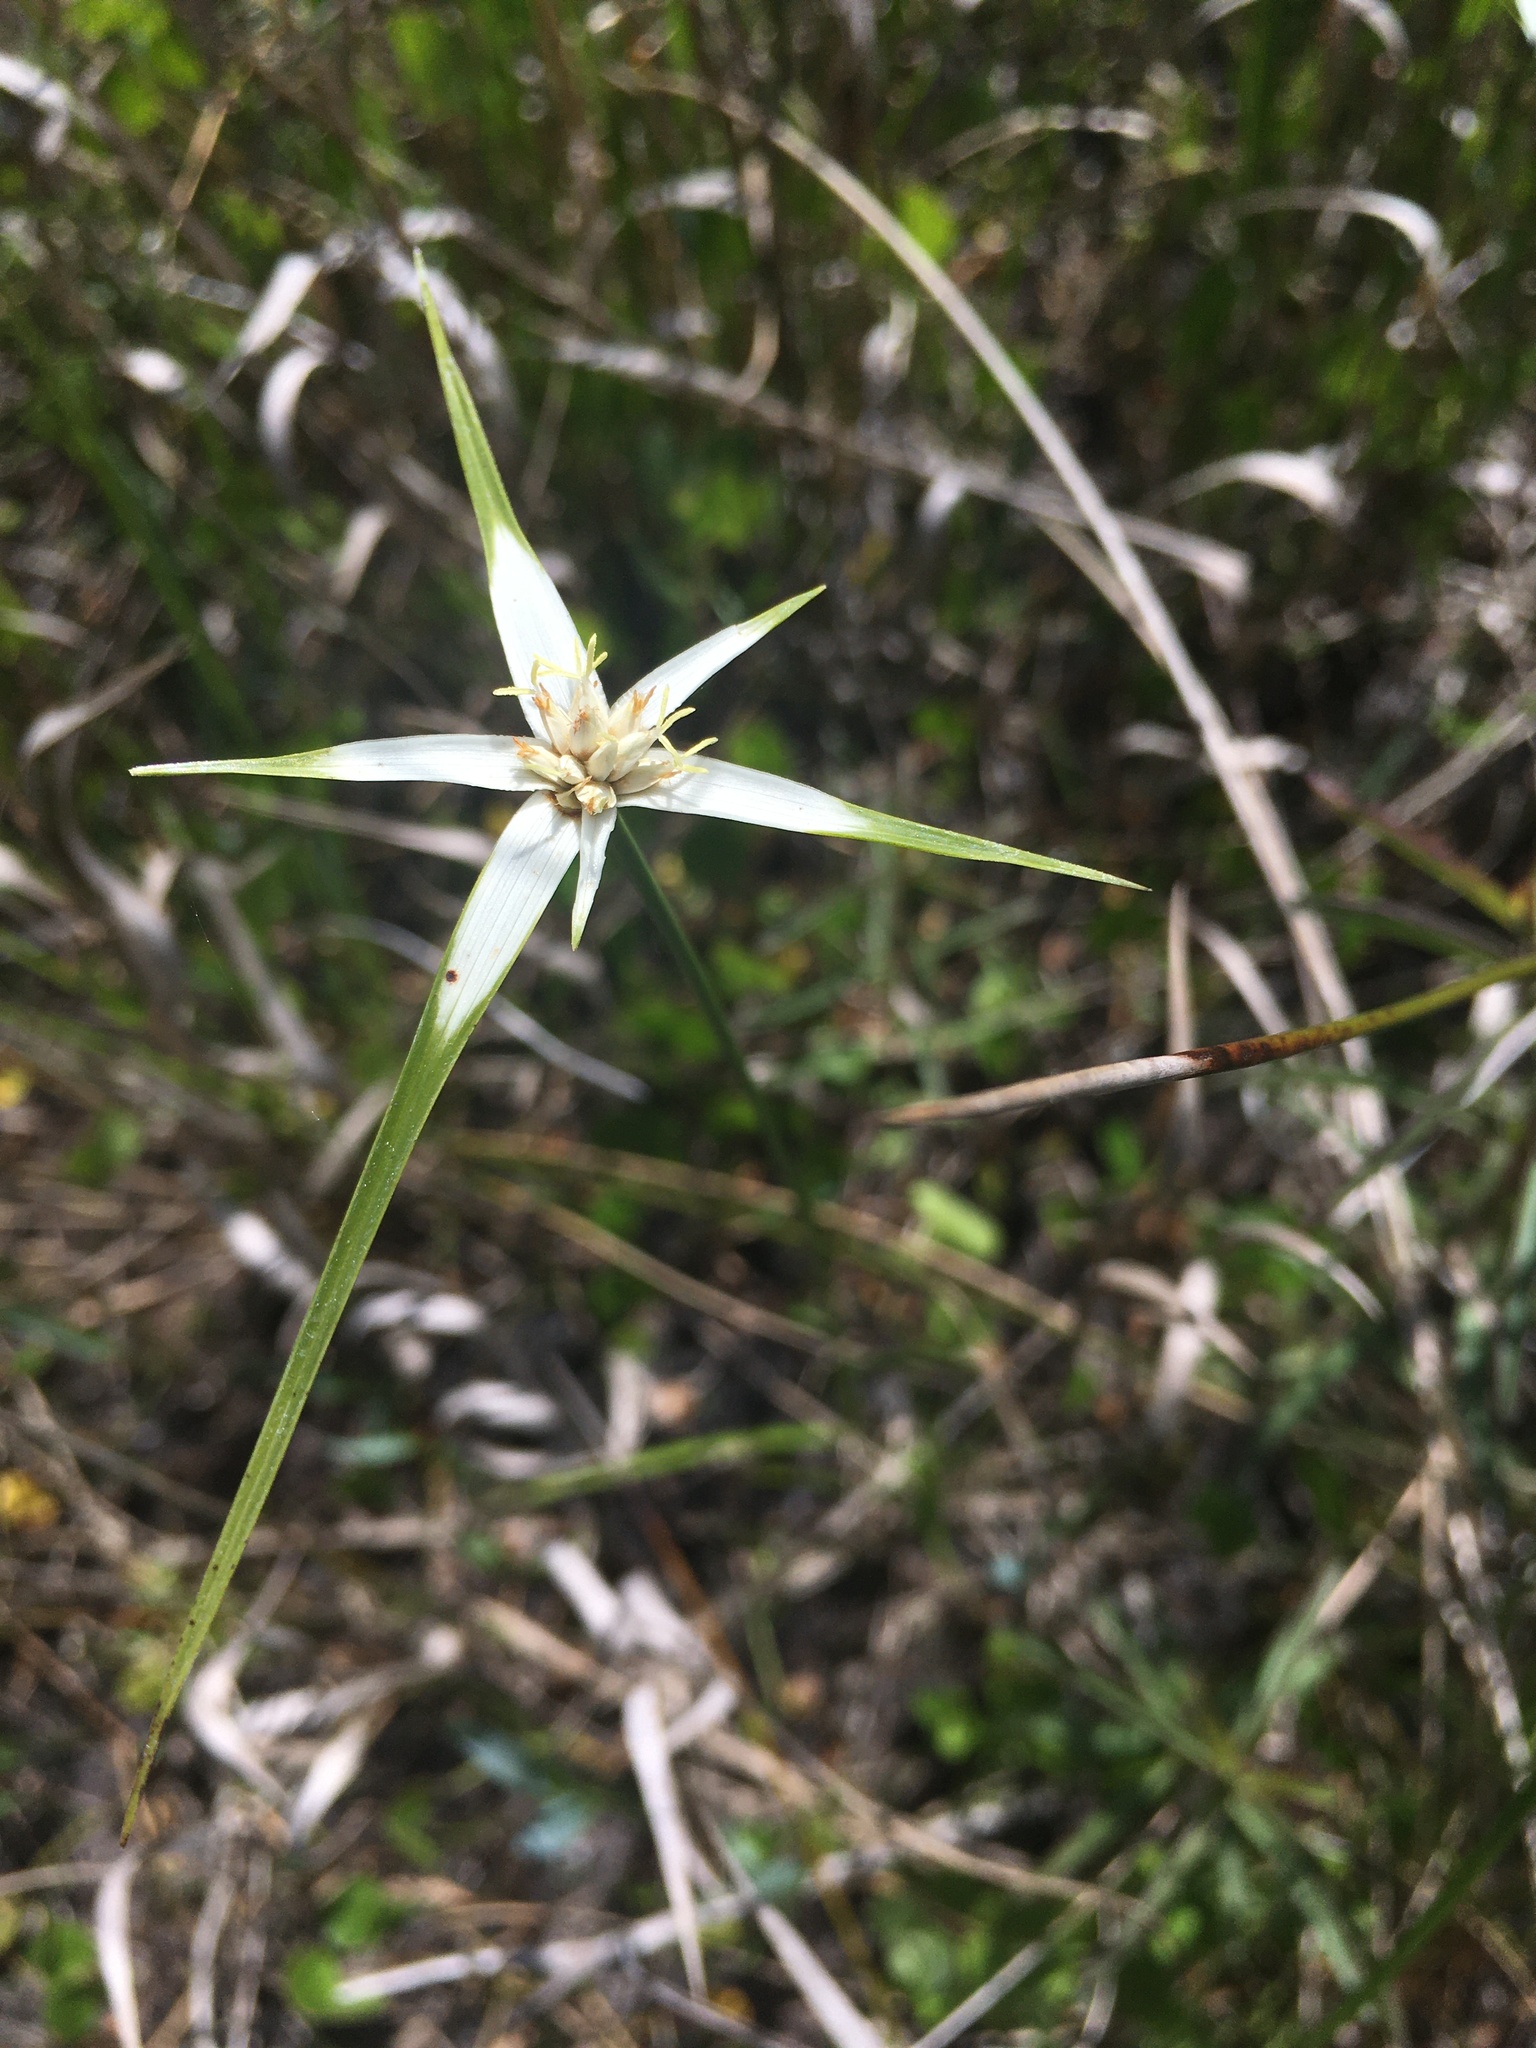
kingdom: Plantae
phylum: Tracheophyta
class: Liliopsida
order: Poales
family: Cyperaceae
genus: Rhynchospora
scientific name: Rhynchospora colorata
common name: Star sedge
